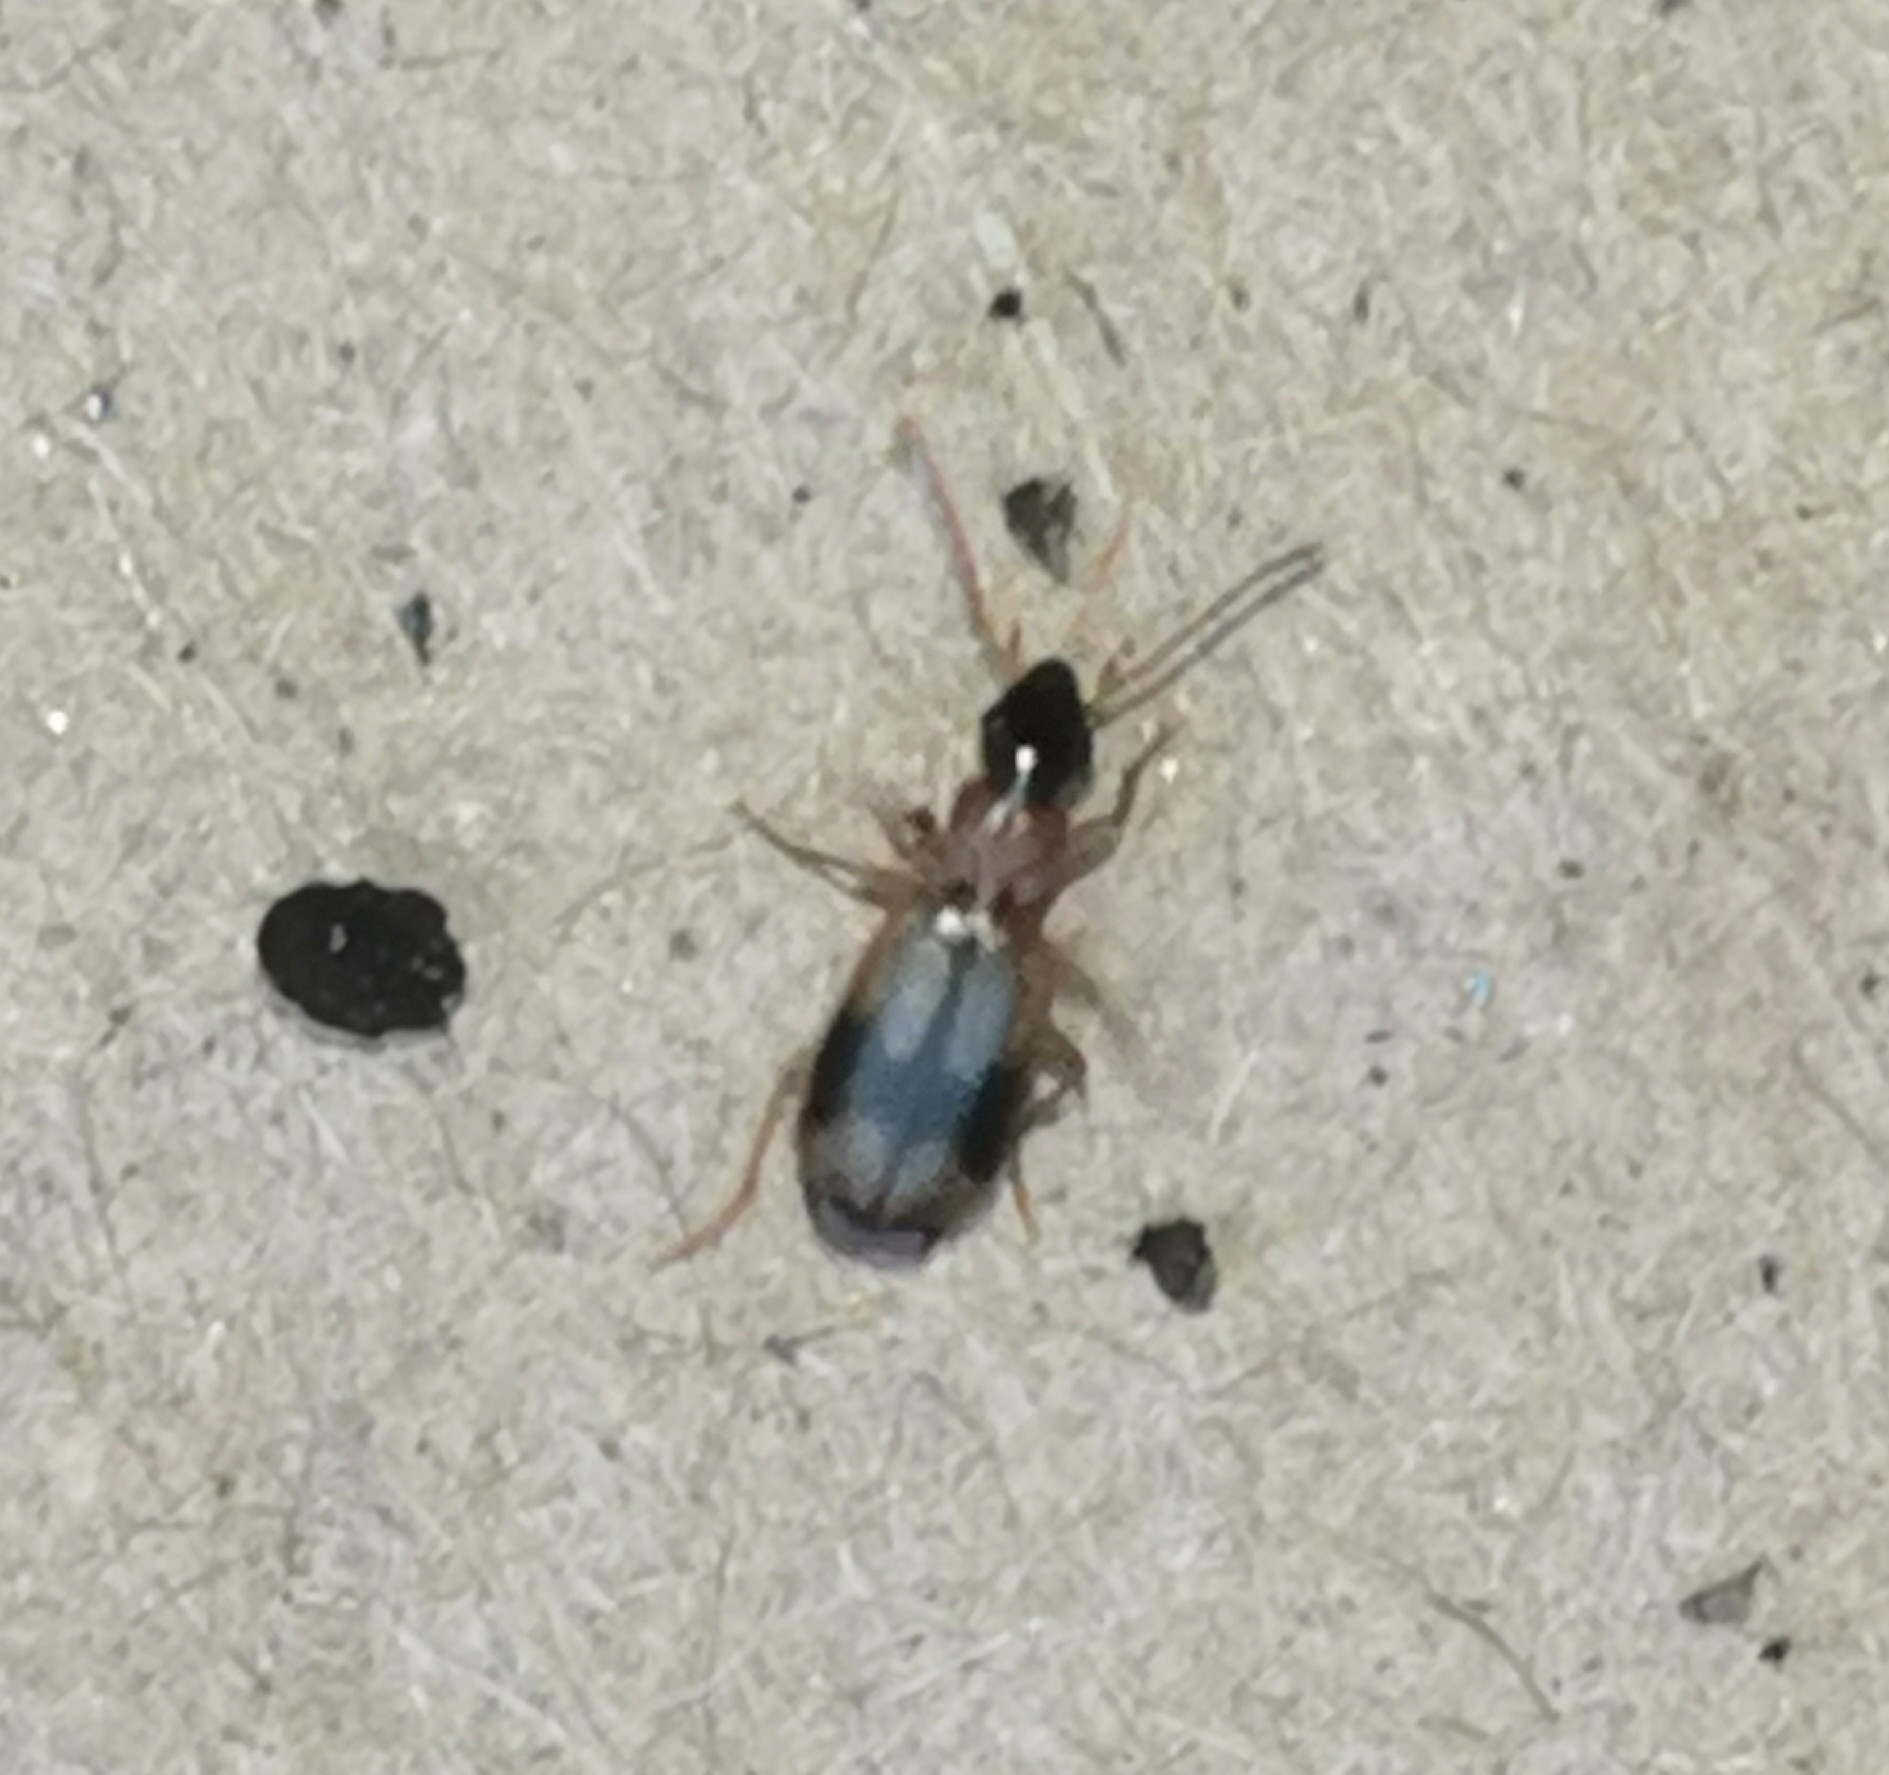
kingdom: Animalia
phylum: Arthropoda
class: Insecta
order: Coleoptera
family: Carabidae
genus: Philorhizus
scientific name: Philorhizus sigma
